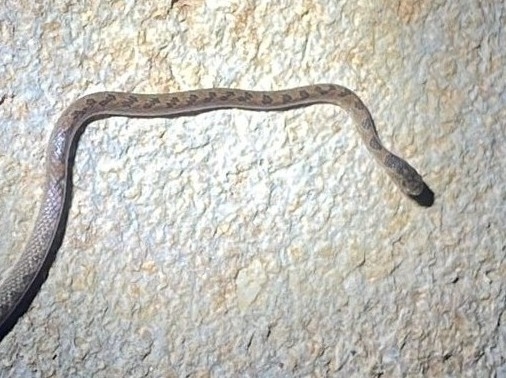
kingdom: Animalia
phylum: Chordata
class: Squamata
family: Colubridae
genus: Geophis
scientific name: Geophis
